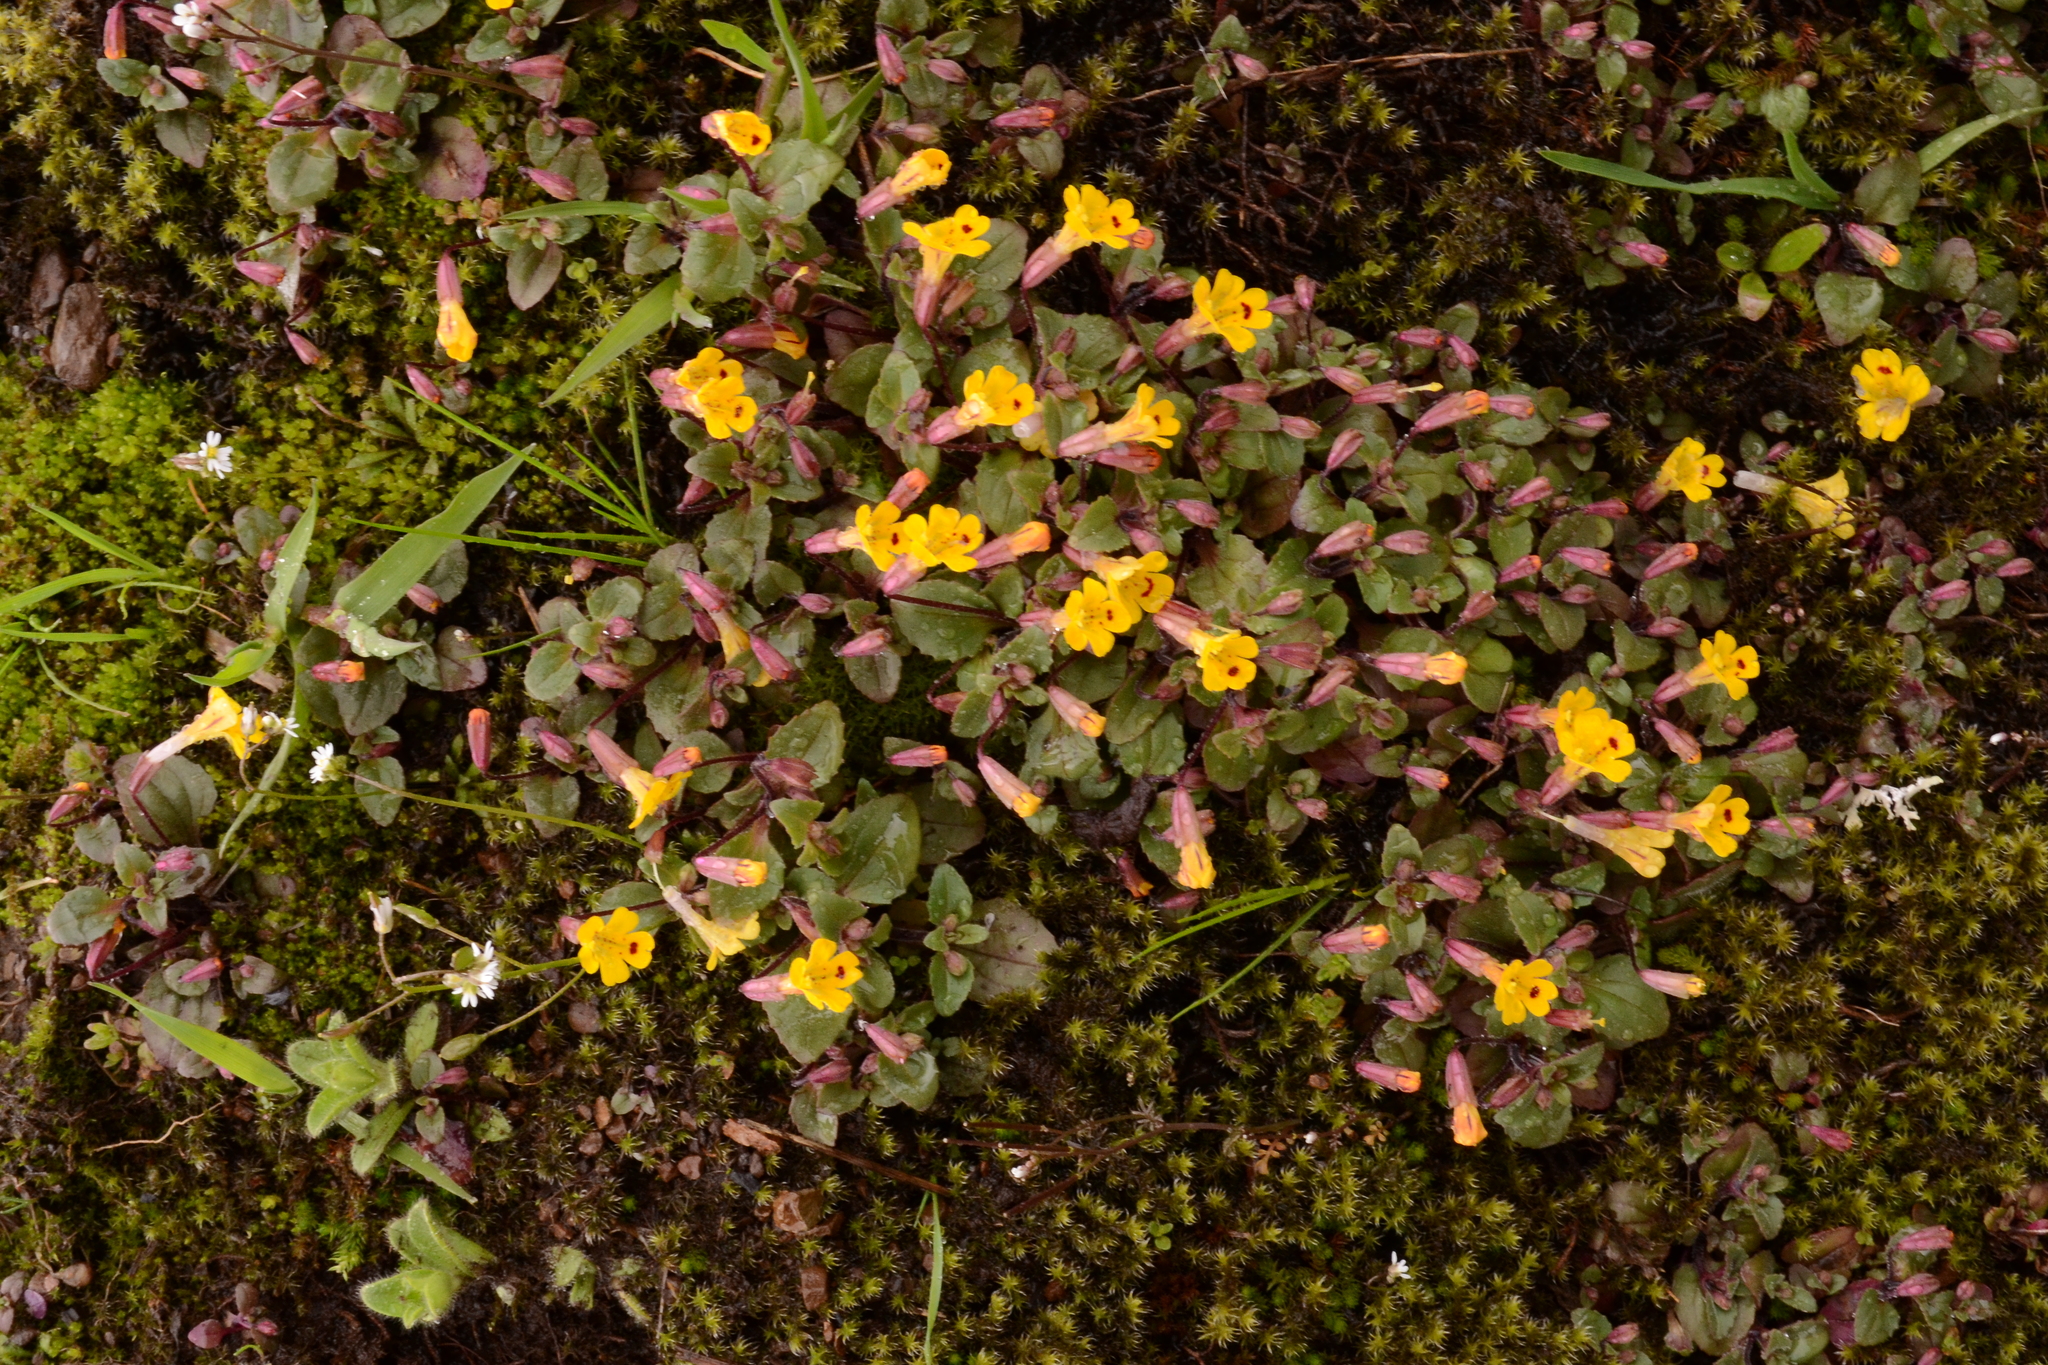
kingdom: Plantae
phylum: Tracheophyta
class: Magnoliopsida
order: Lamiales
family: Phrymaceae
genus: Erythranthe
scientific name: Erythranthe alsinoides
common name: Chickweed monkeyflower
